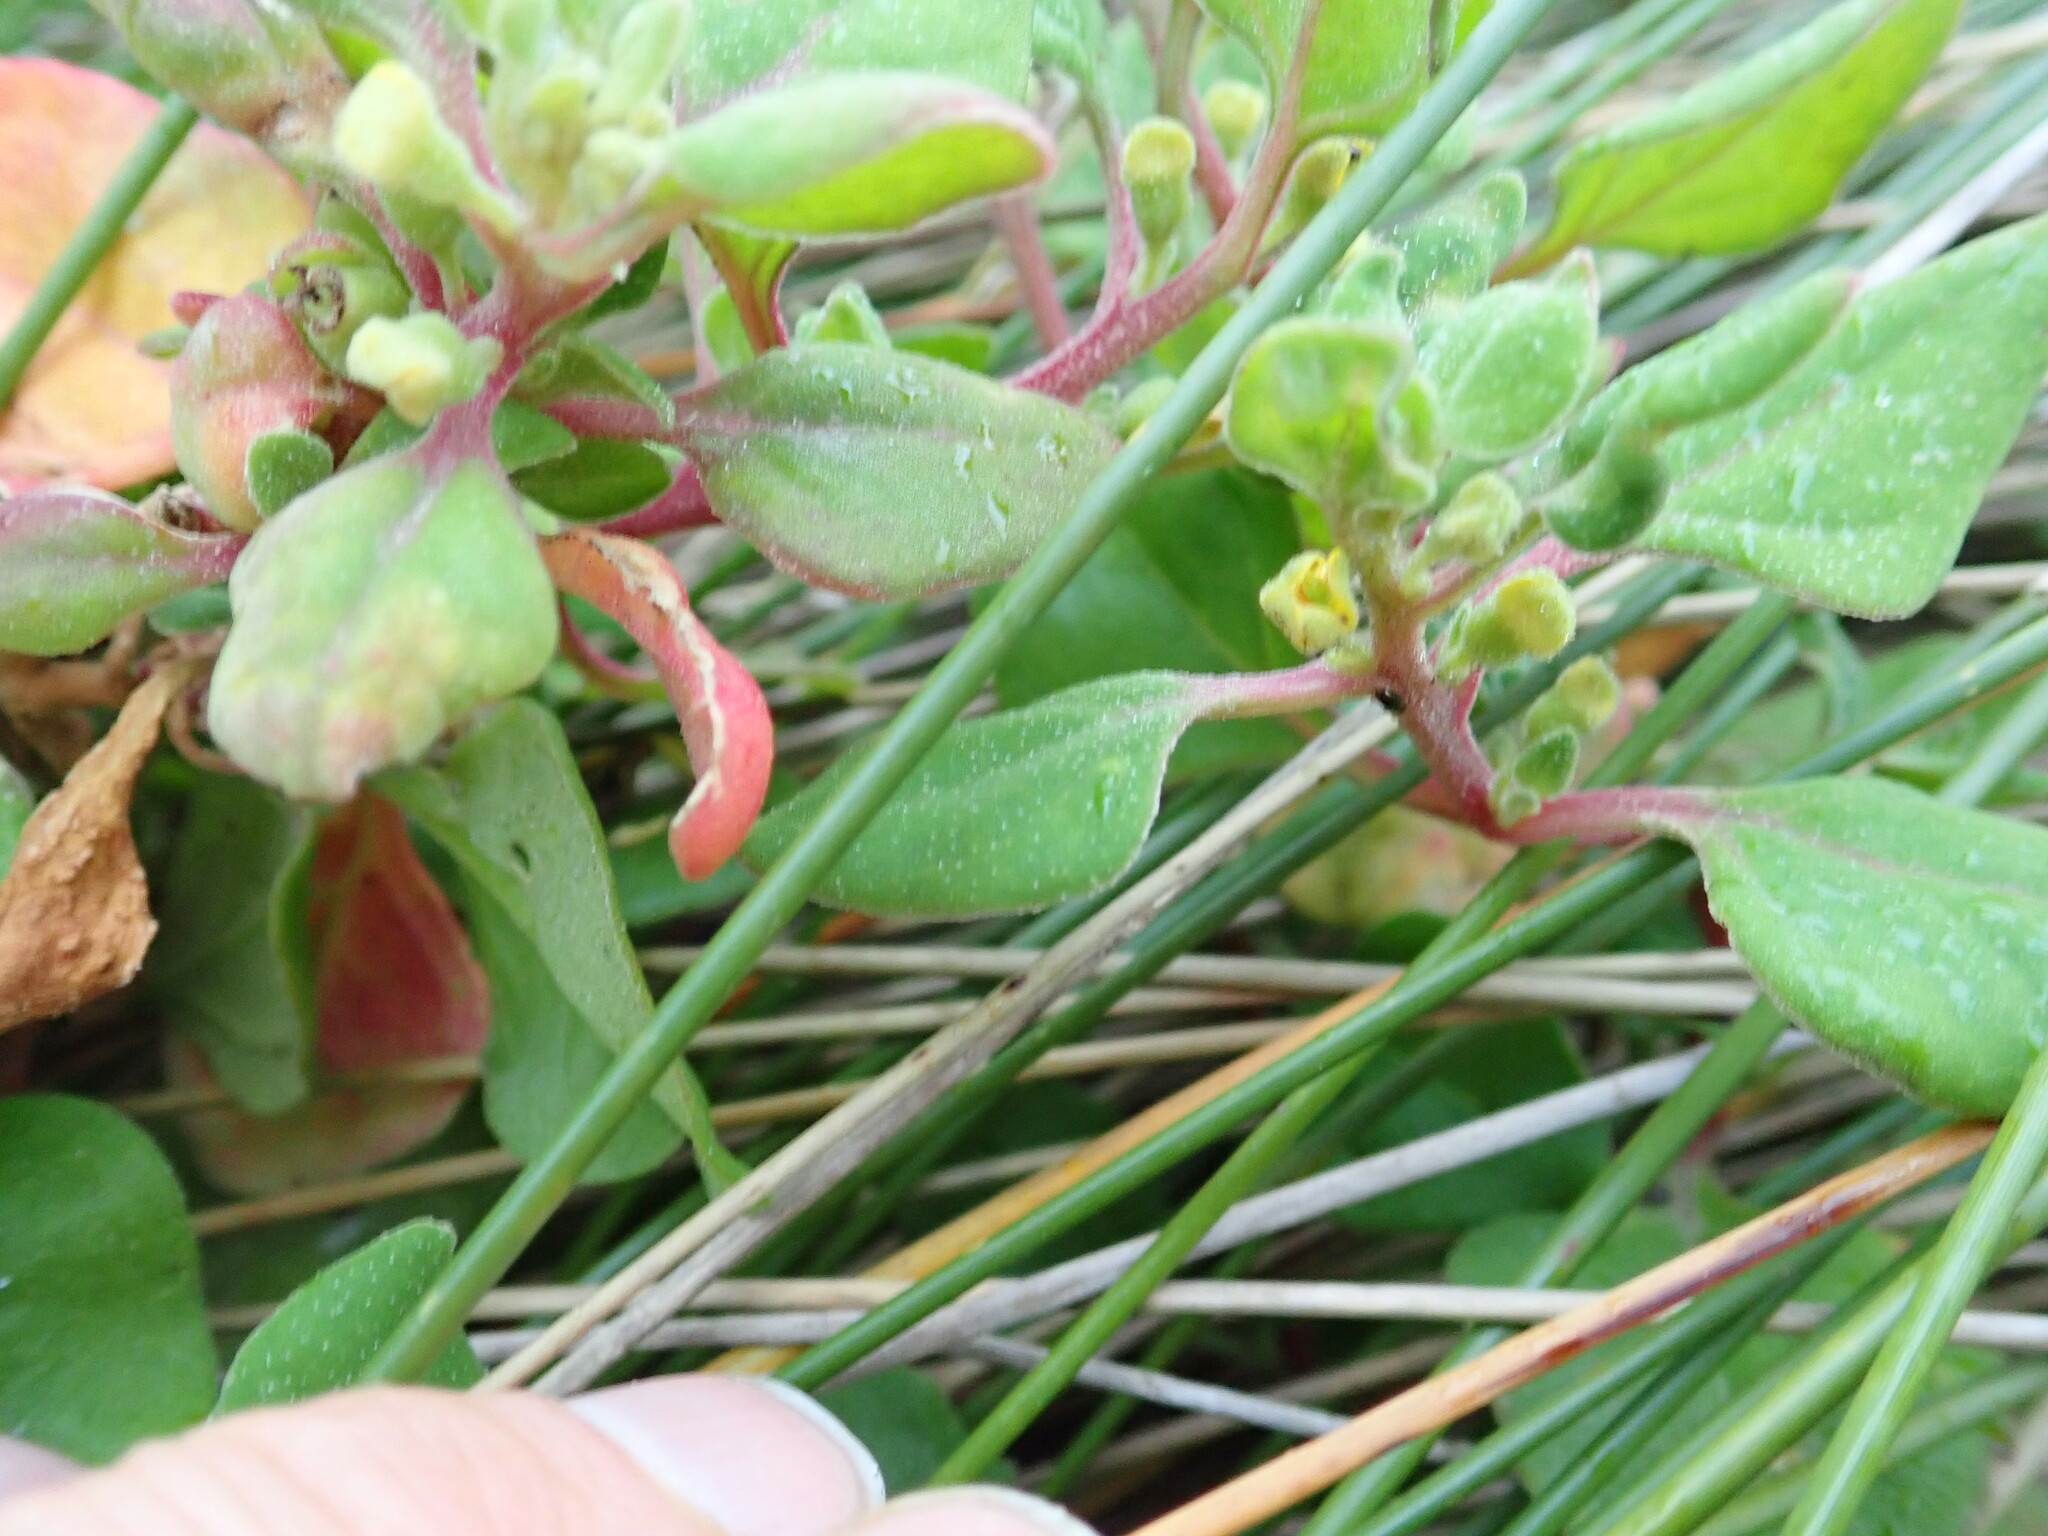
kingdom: Plantae
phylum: Tracheophyta
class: Magnoliopsida
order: Caryophyllales
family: Aizoaceae
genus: Tetragonia
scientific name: Tetragonia implexicoma
